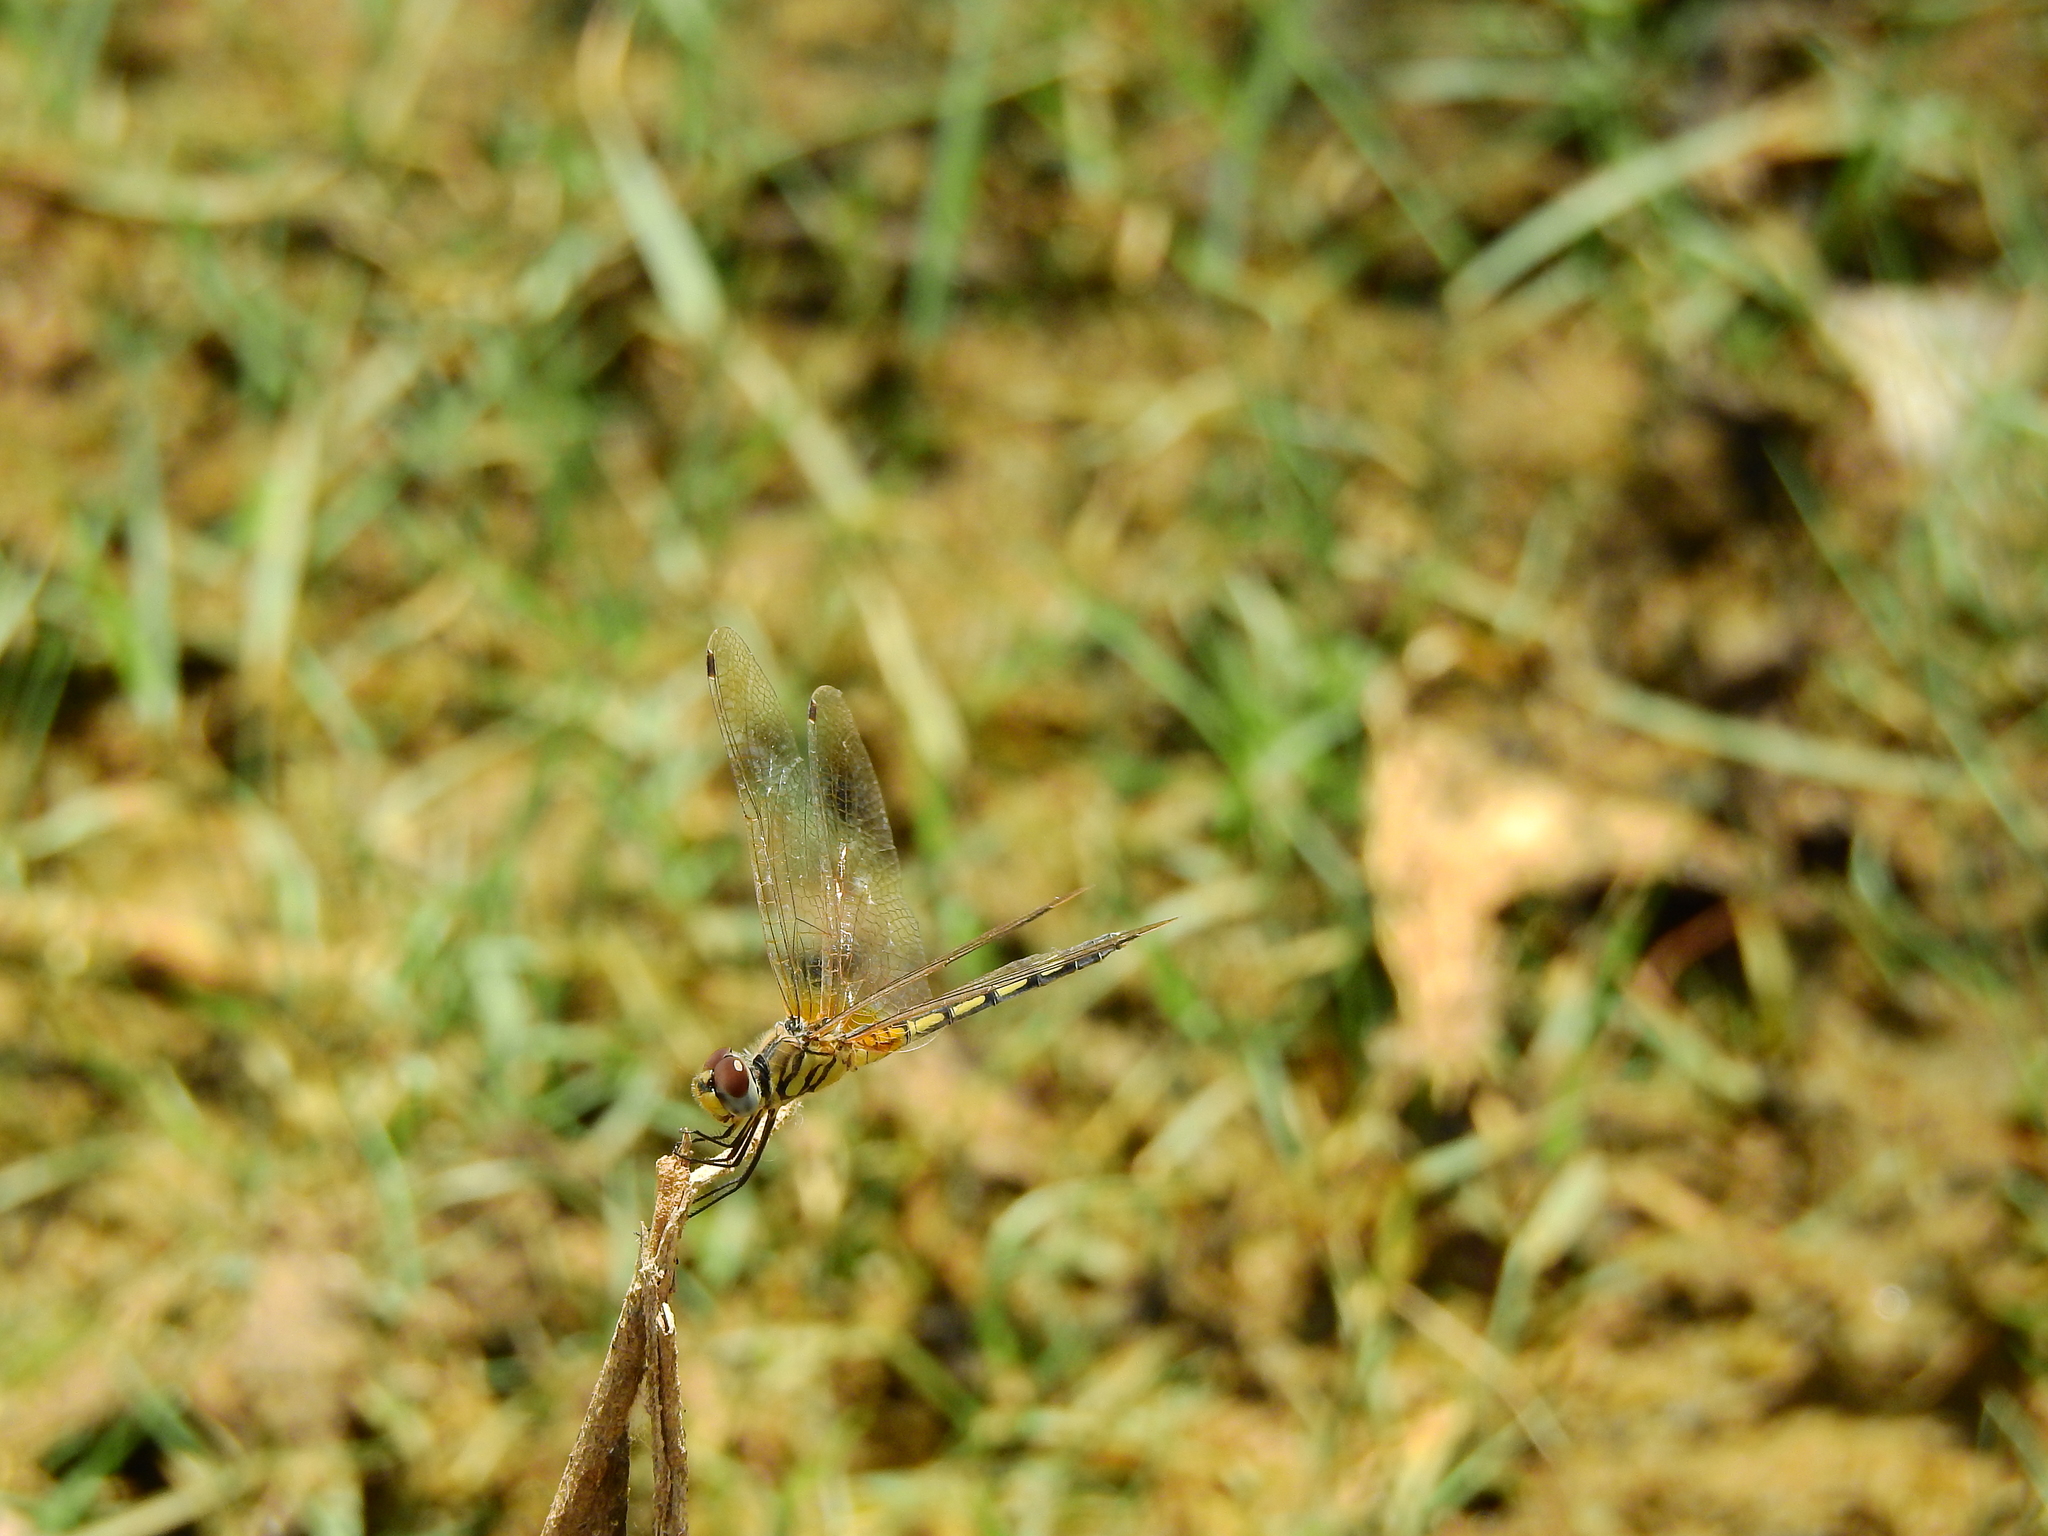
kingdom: Animalia
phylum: Arthropoda
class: Insecta
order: Odonata
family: Libellulidae
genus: Trithemis
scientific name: Trithemis pallidinervis
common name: Dancing dropwing
